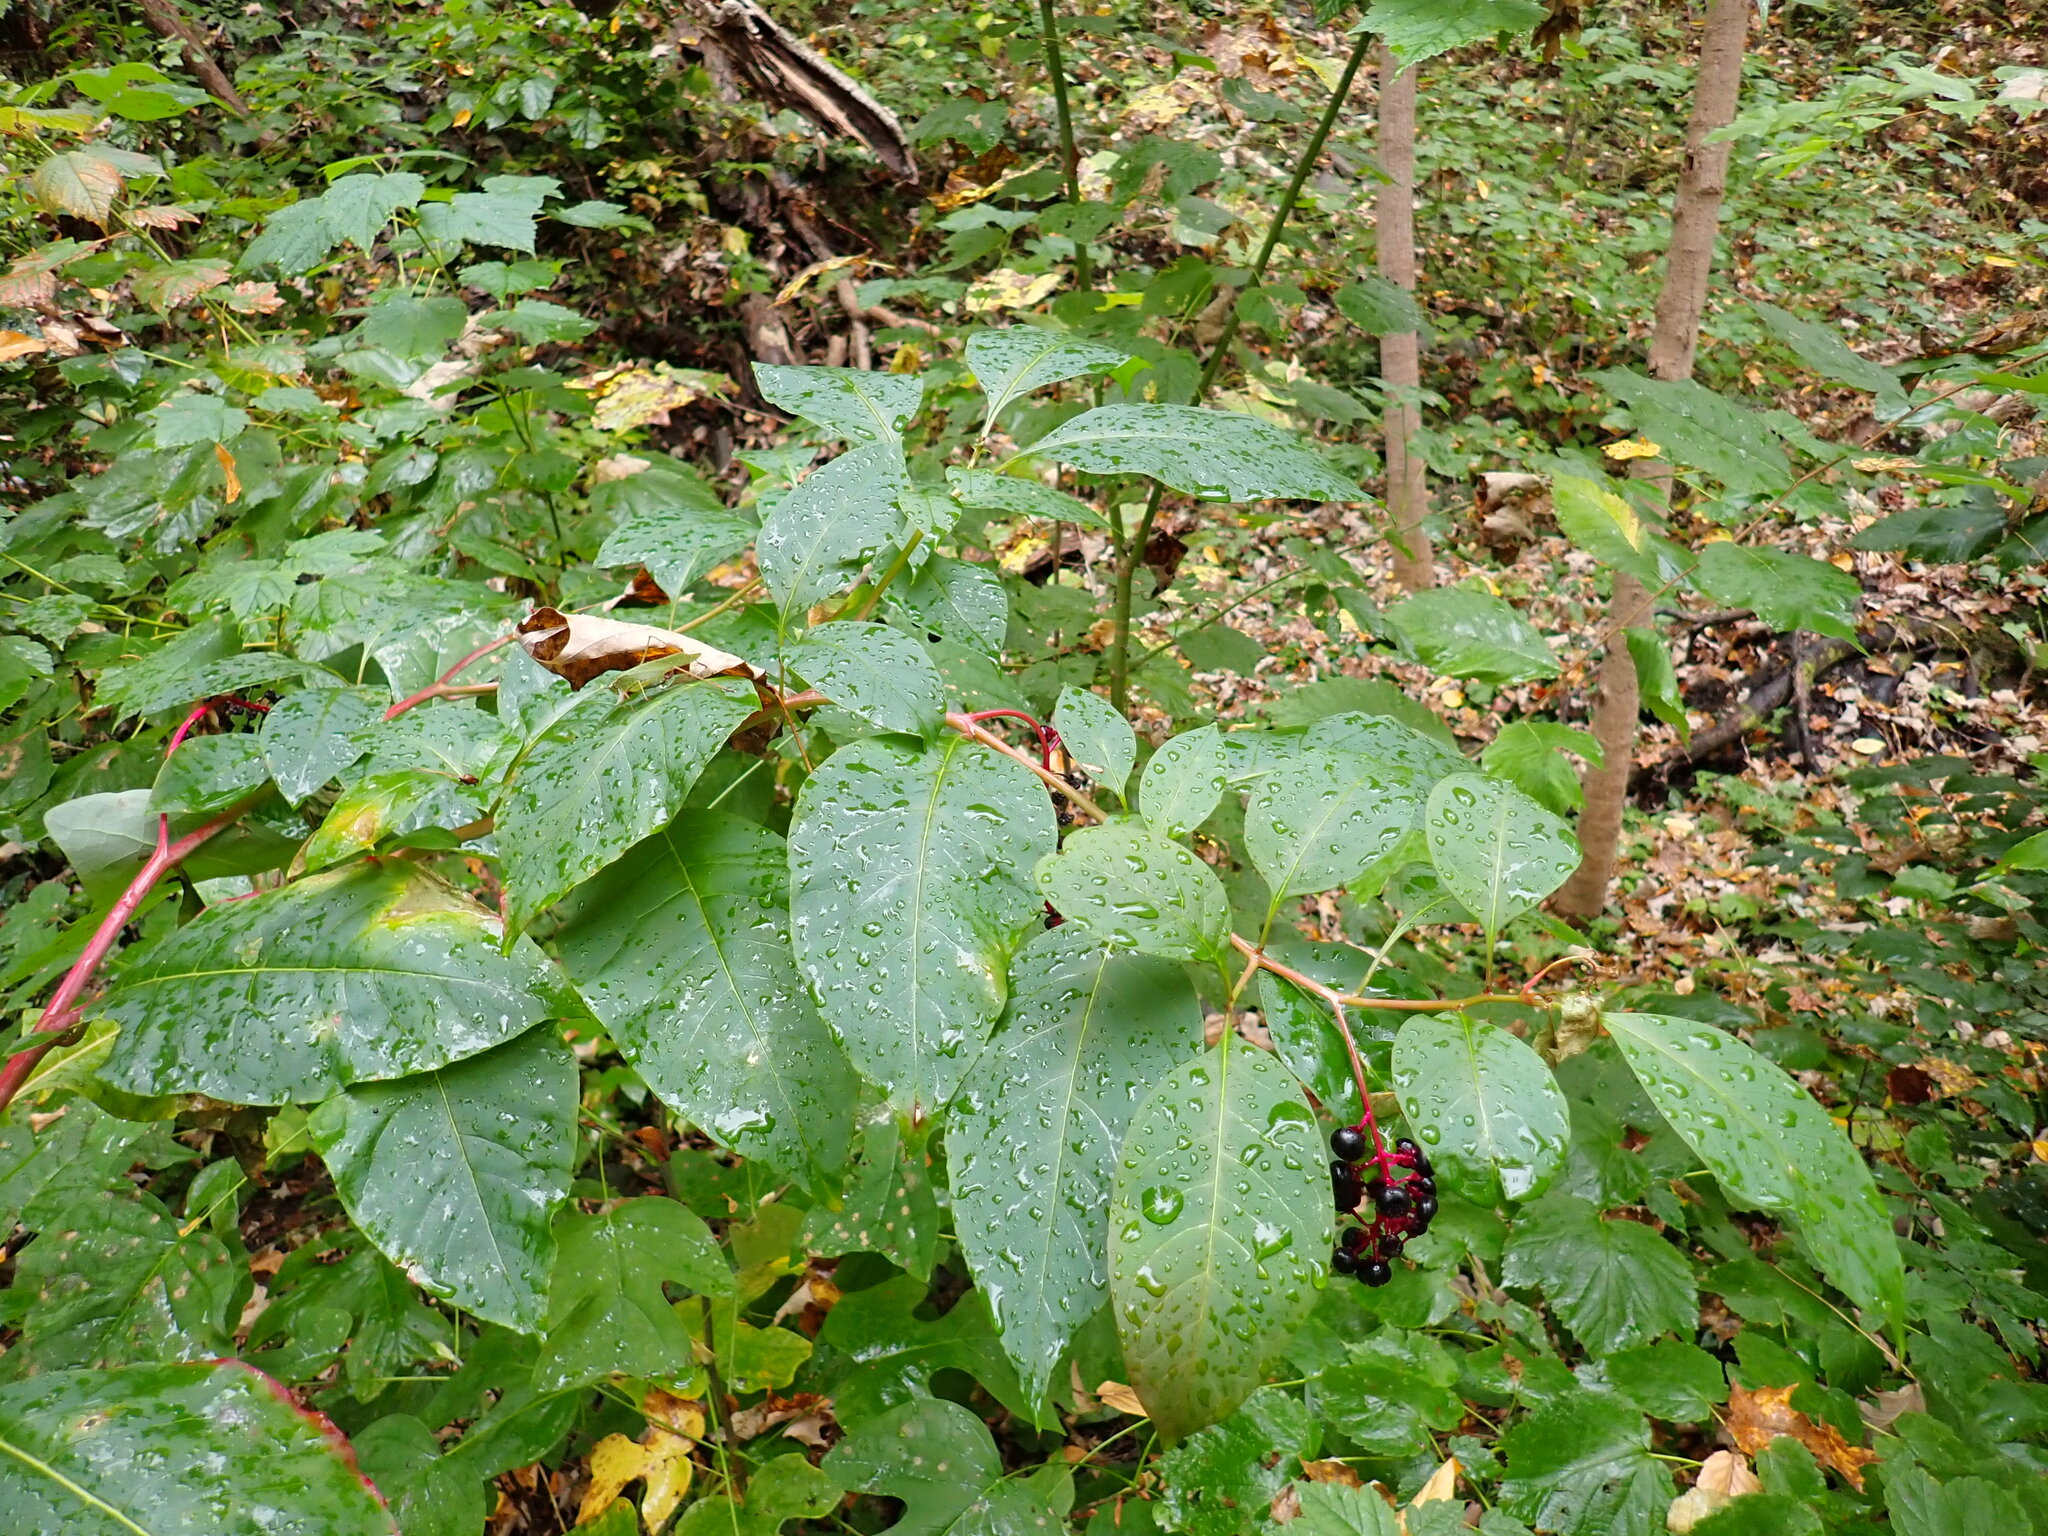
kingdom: Plantae
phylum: Tracheophyta
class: Magnoliopsida
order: Caryophyllales
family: Phytolaccaceae
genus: Phytolacca
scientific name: Phytolacca americana
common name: American pokeweed
